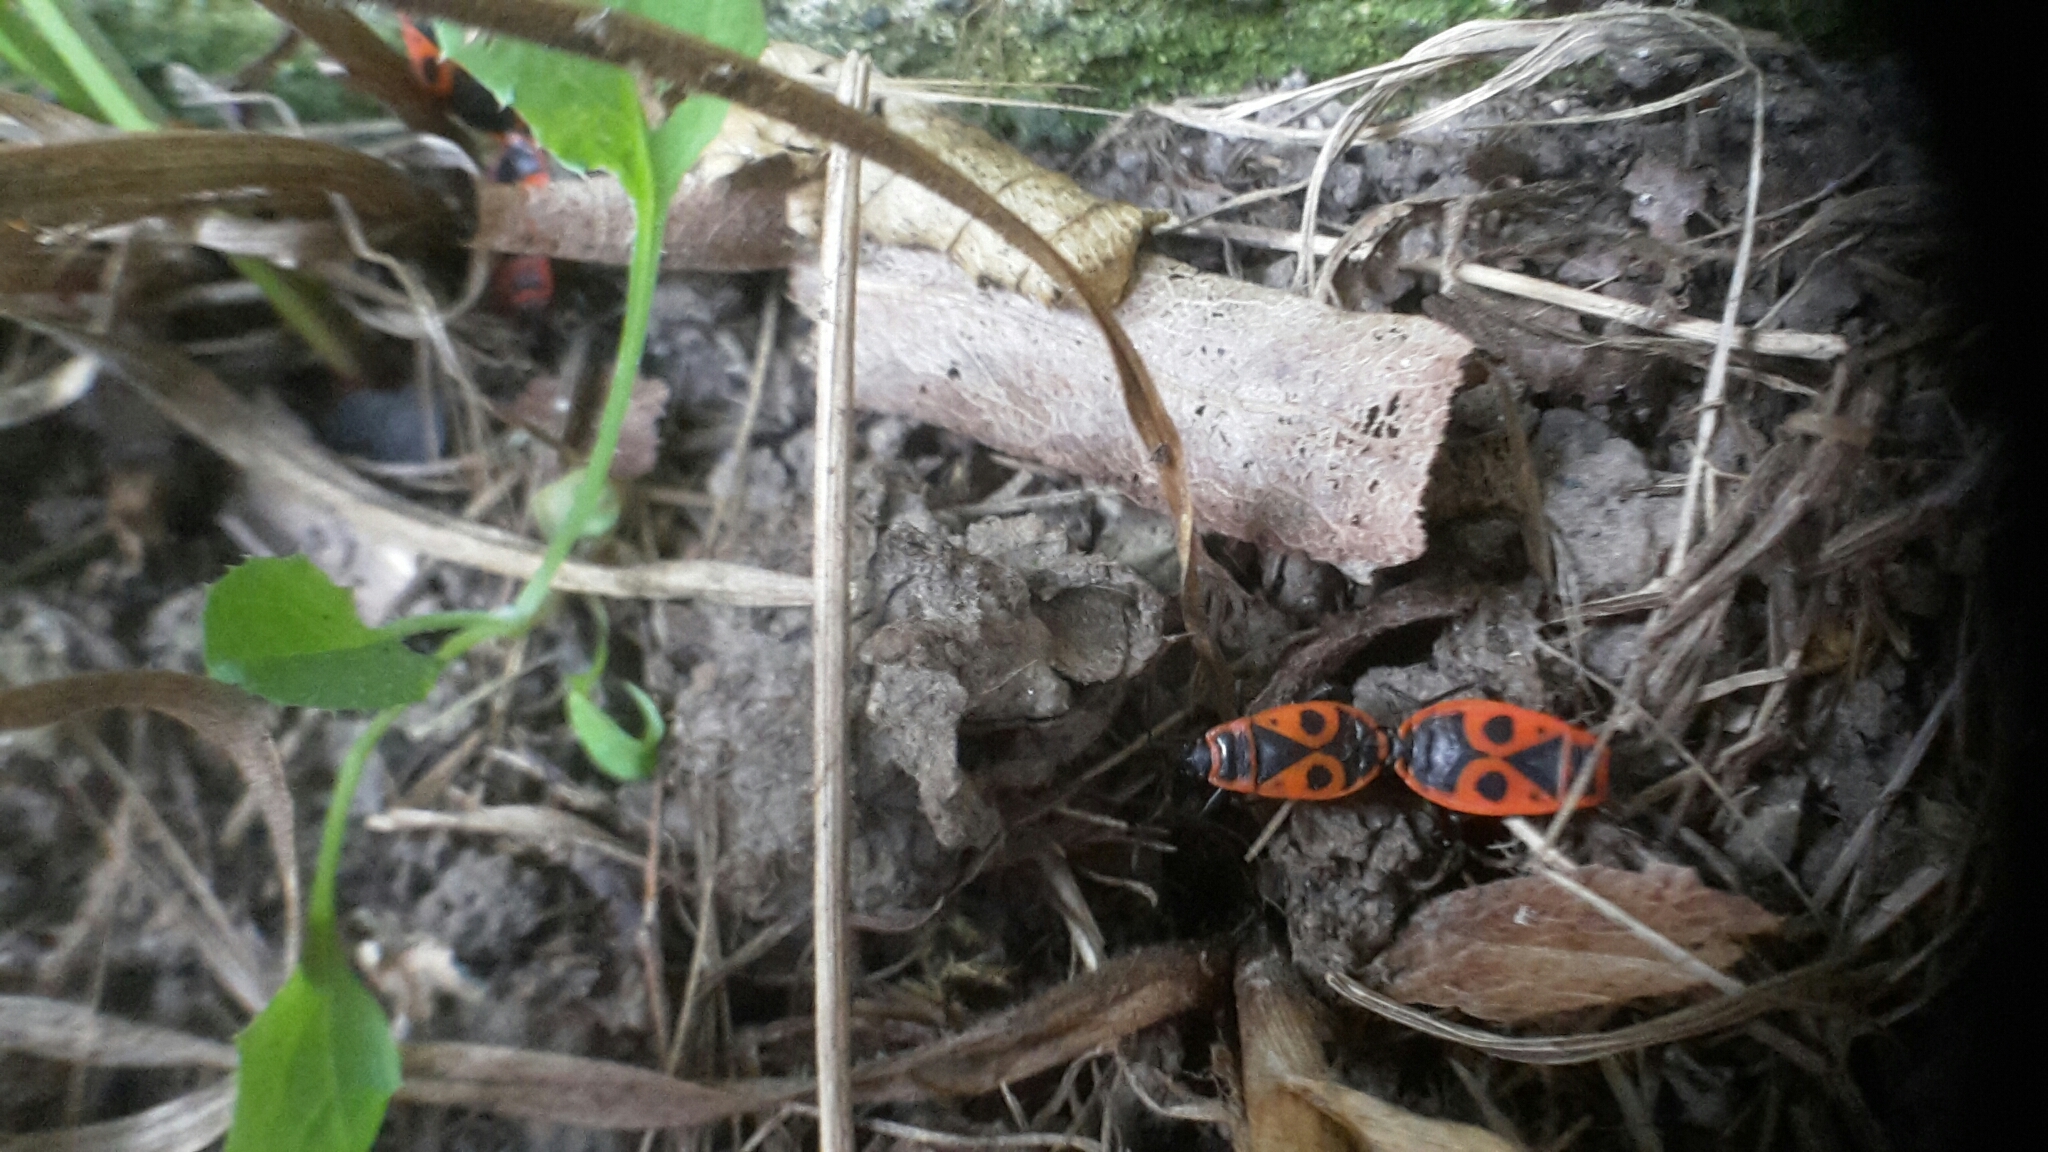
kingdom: Animalia
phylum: Arthropoda
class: Insecta
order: Hemiptera
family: Pyrrhocoridae
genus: Pyrrhocoris
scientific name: Pyrrhocoris apterus
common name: Firebug
